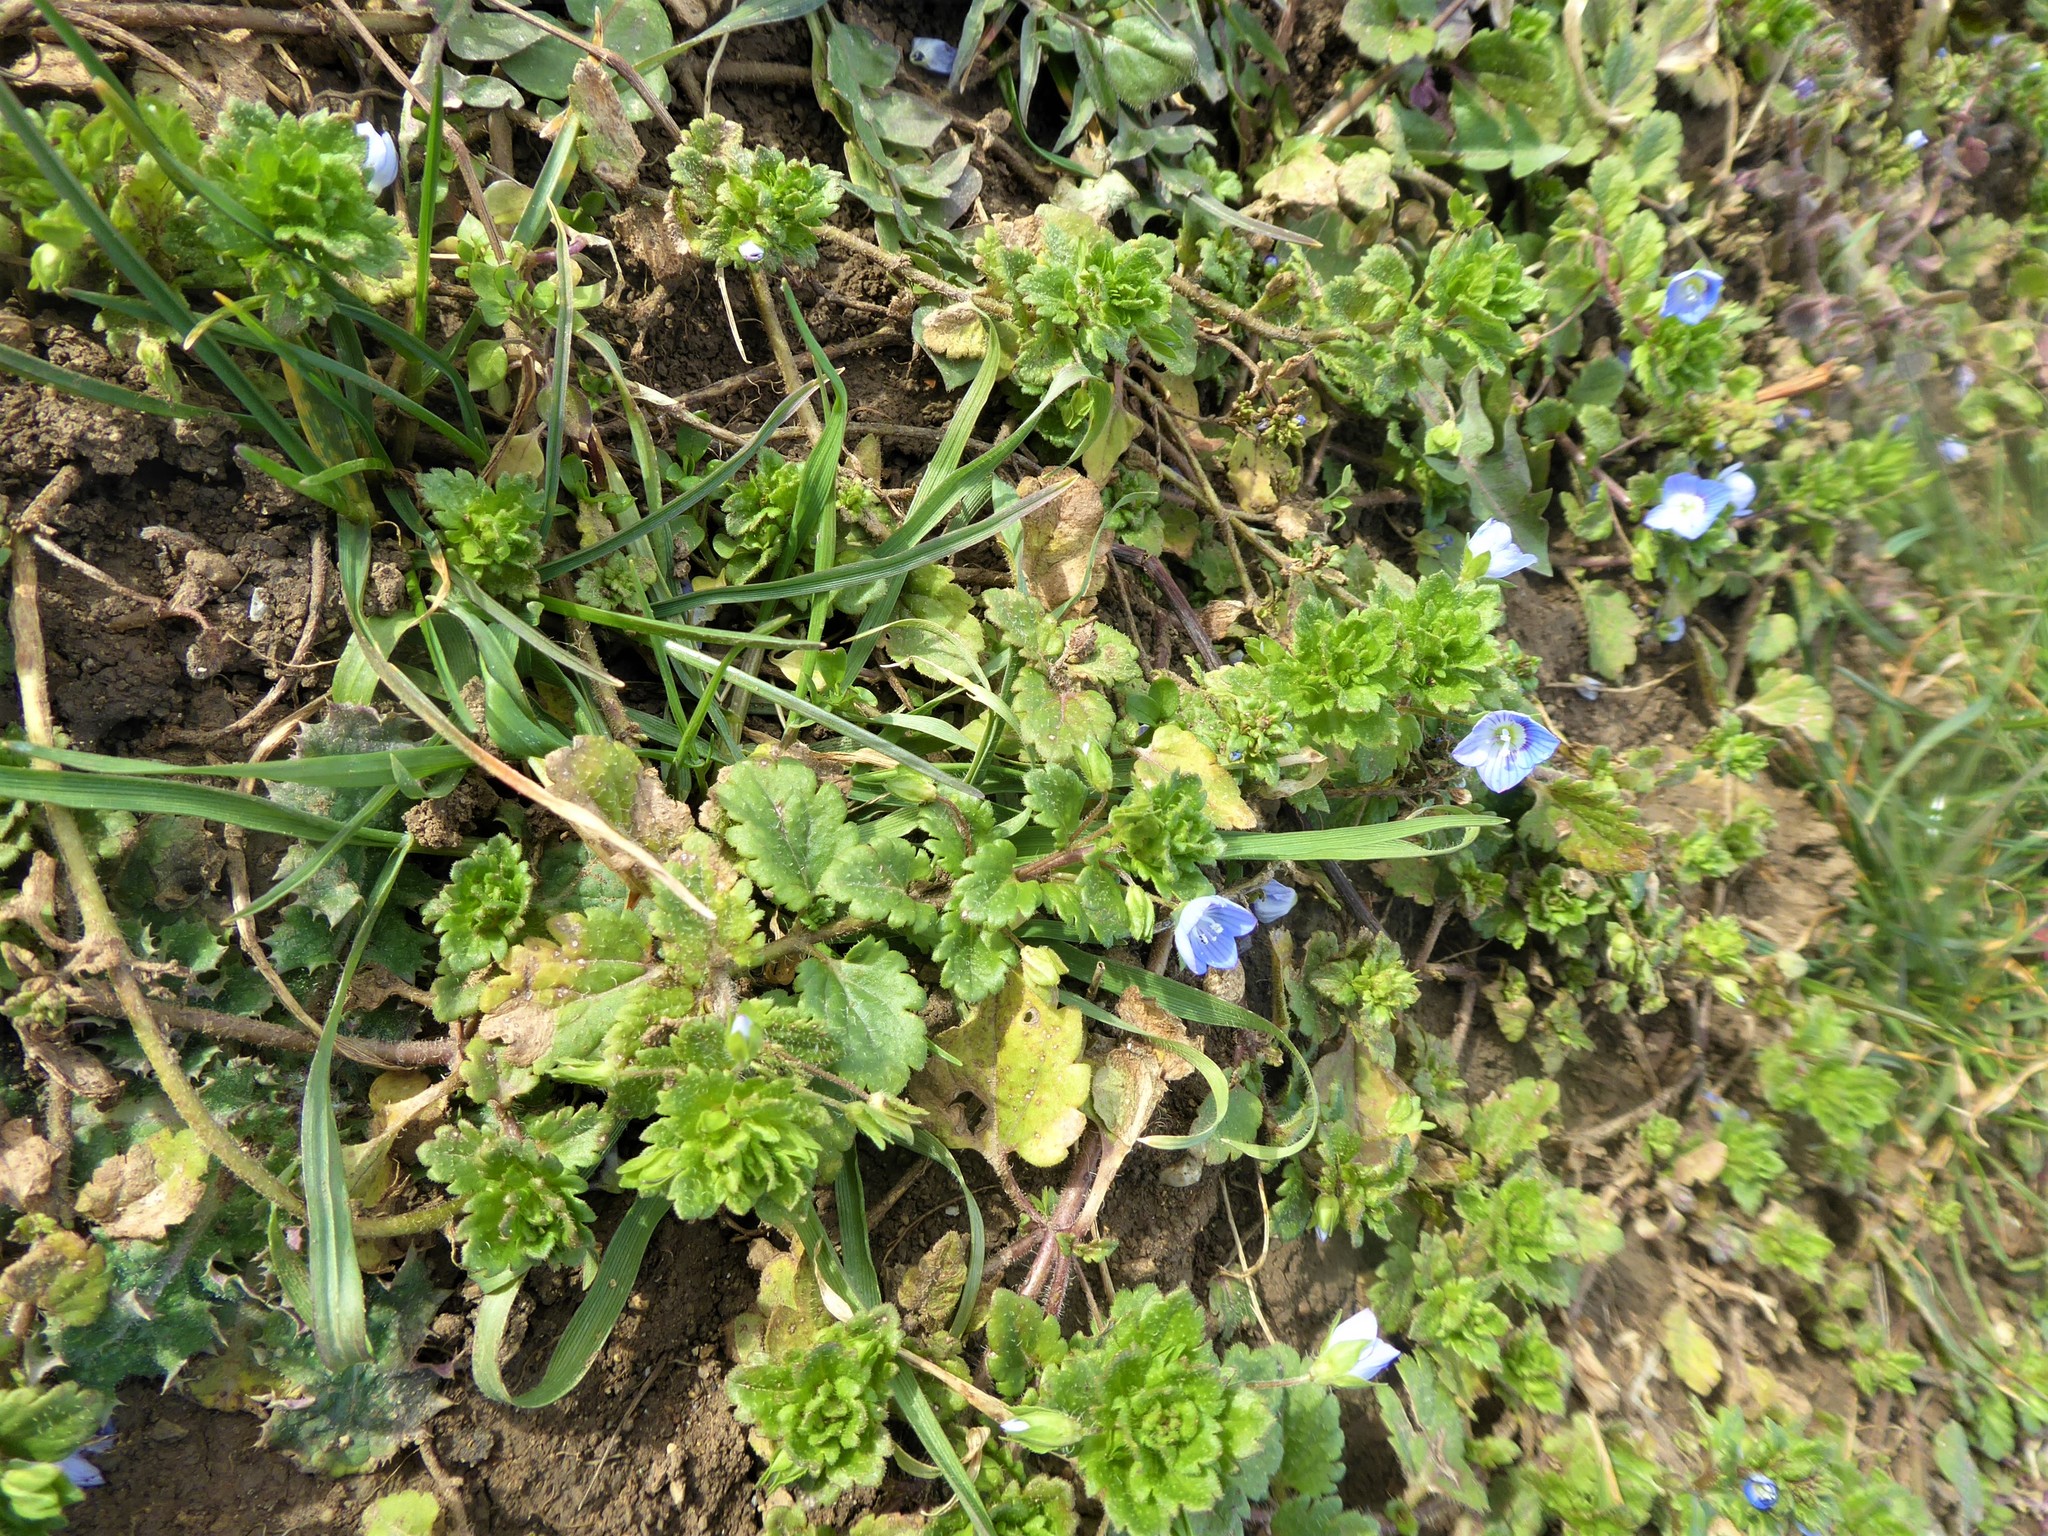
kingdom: Plantae
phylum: Tracheophyta
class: Magnoliopsida
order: Lamiales
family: Plantaginaceae
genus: Veronica
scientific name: Veronica persica
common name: Common field-speedwell
